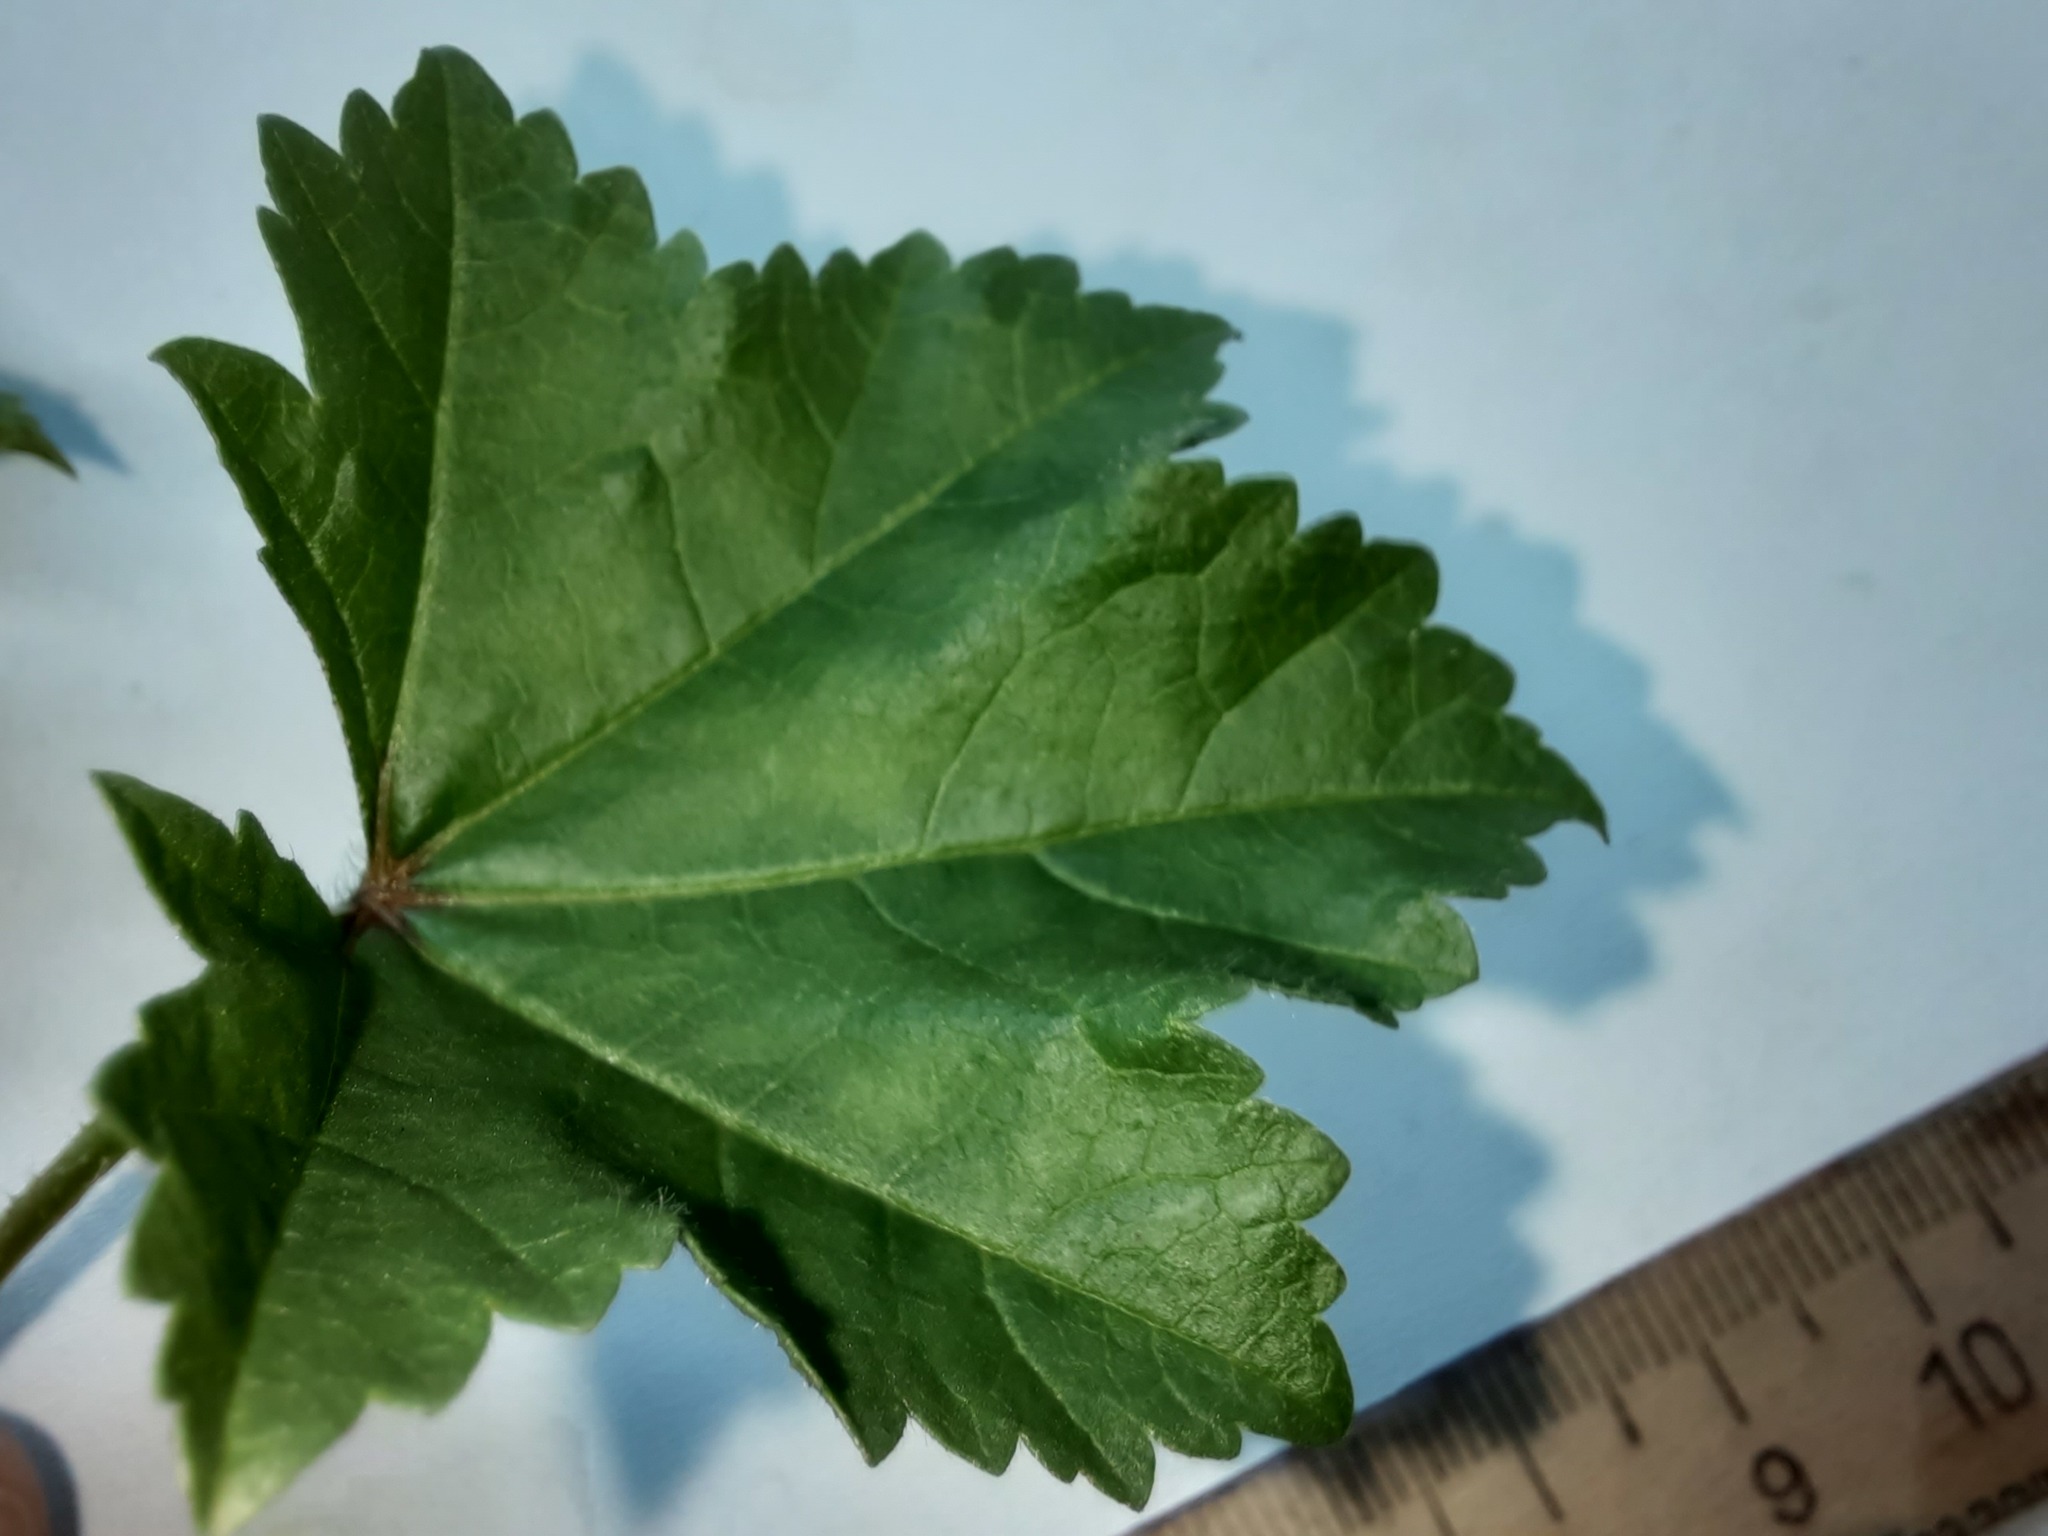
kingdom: Plantae
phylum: Tracheophyta
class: Magnoliopsida
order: Malvales
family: Malvaceae
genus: Malva
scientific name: Malva pusilla
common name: Small mallow
